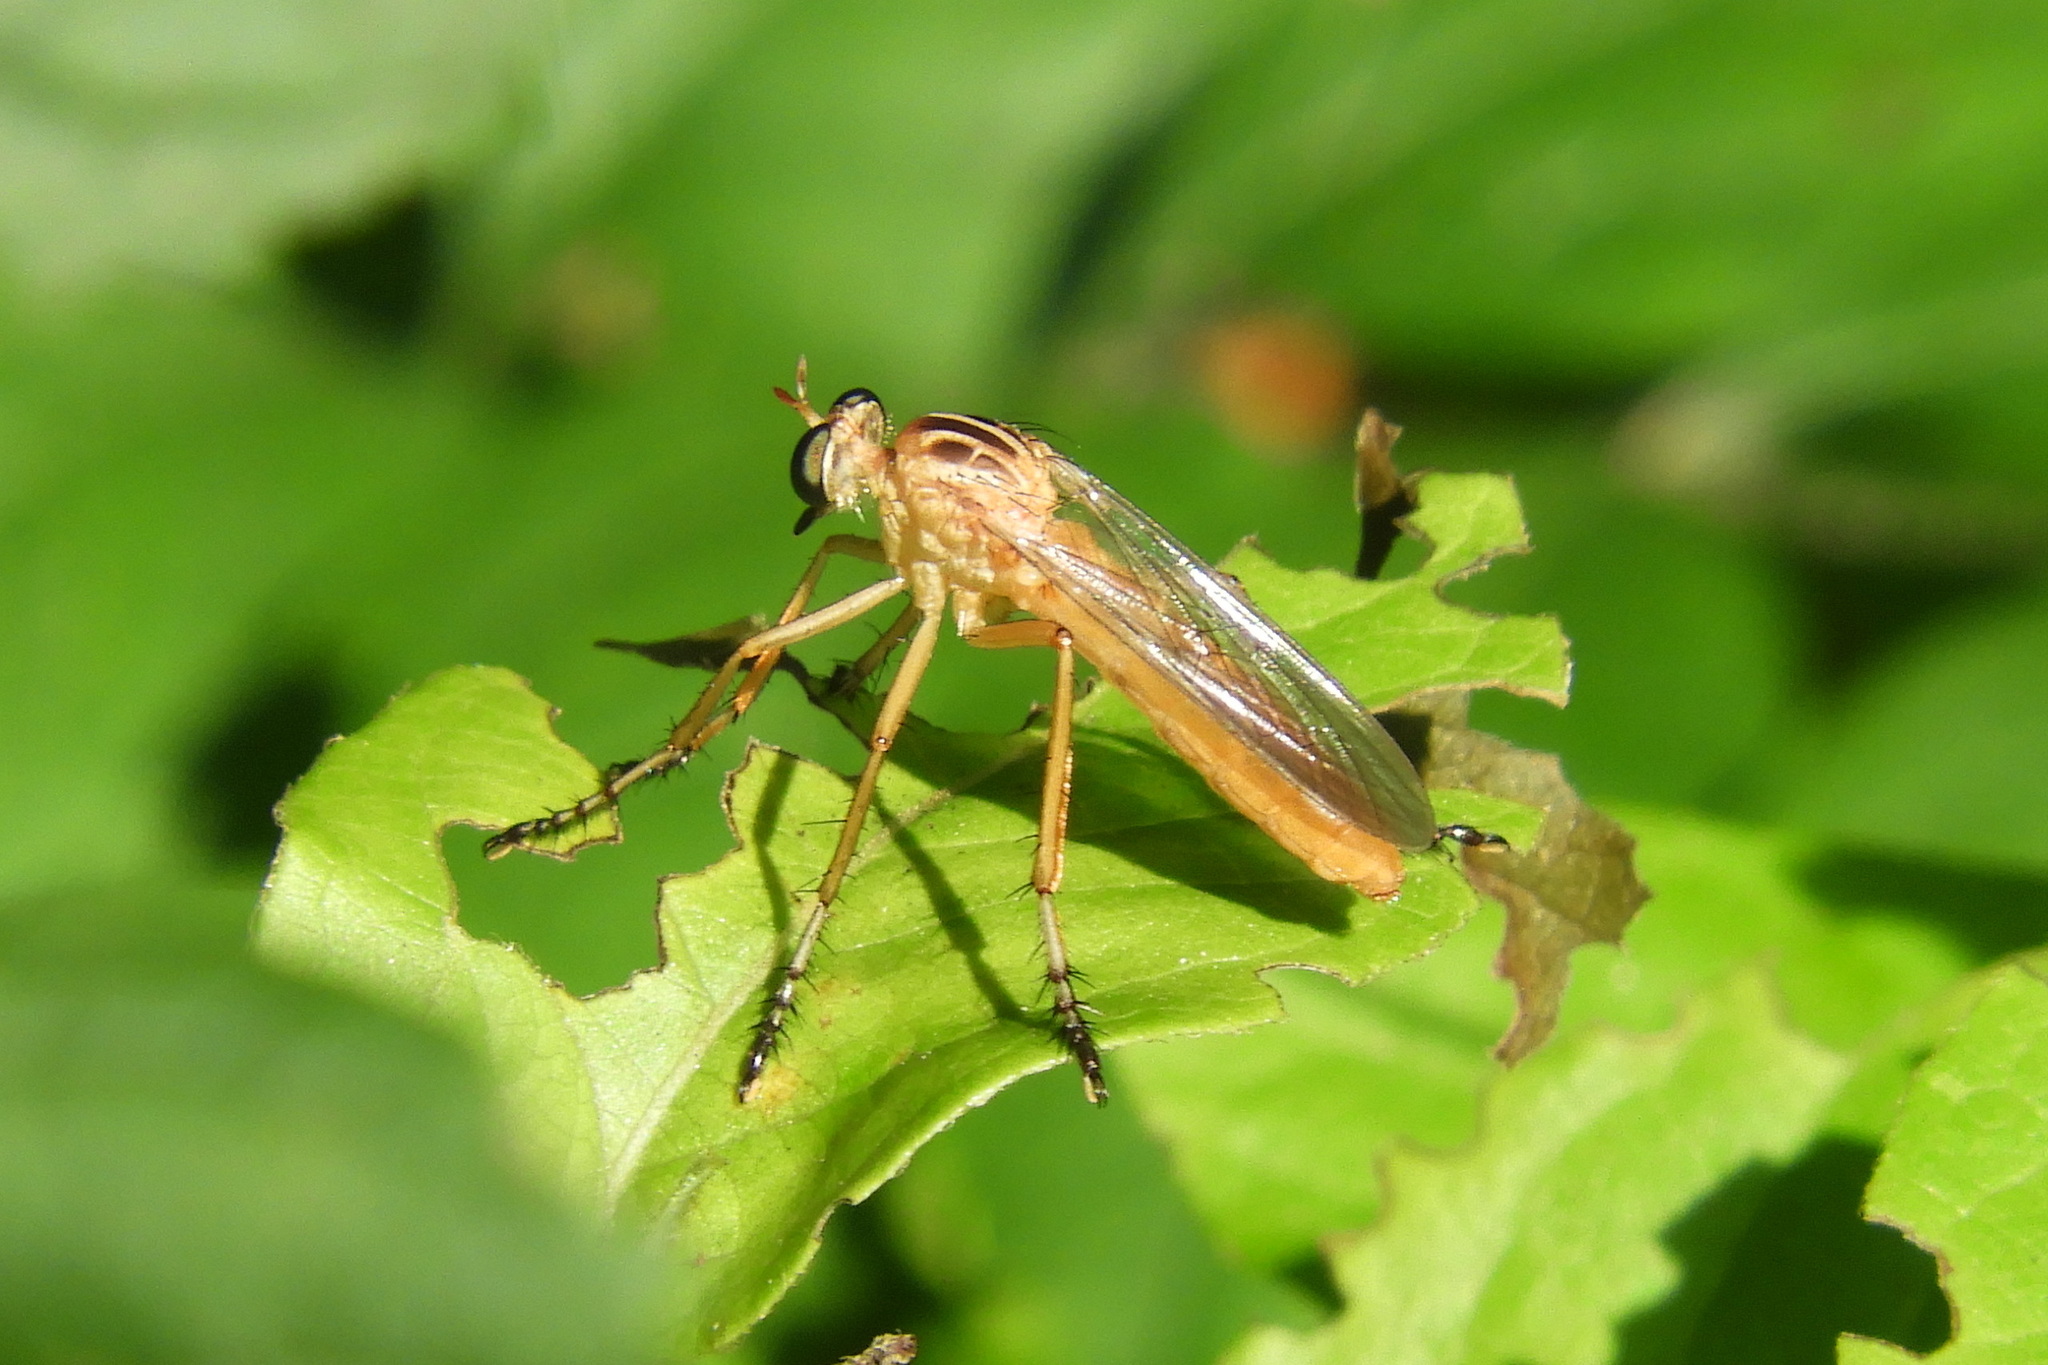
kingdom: Animalia
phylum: Arthropoda
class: Insecta
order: Diptera
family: Asilidae
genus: Diogmites
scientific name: Diogmites neoternatus
